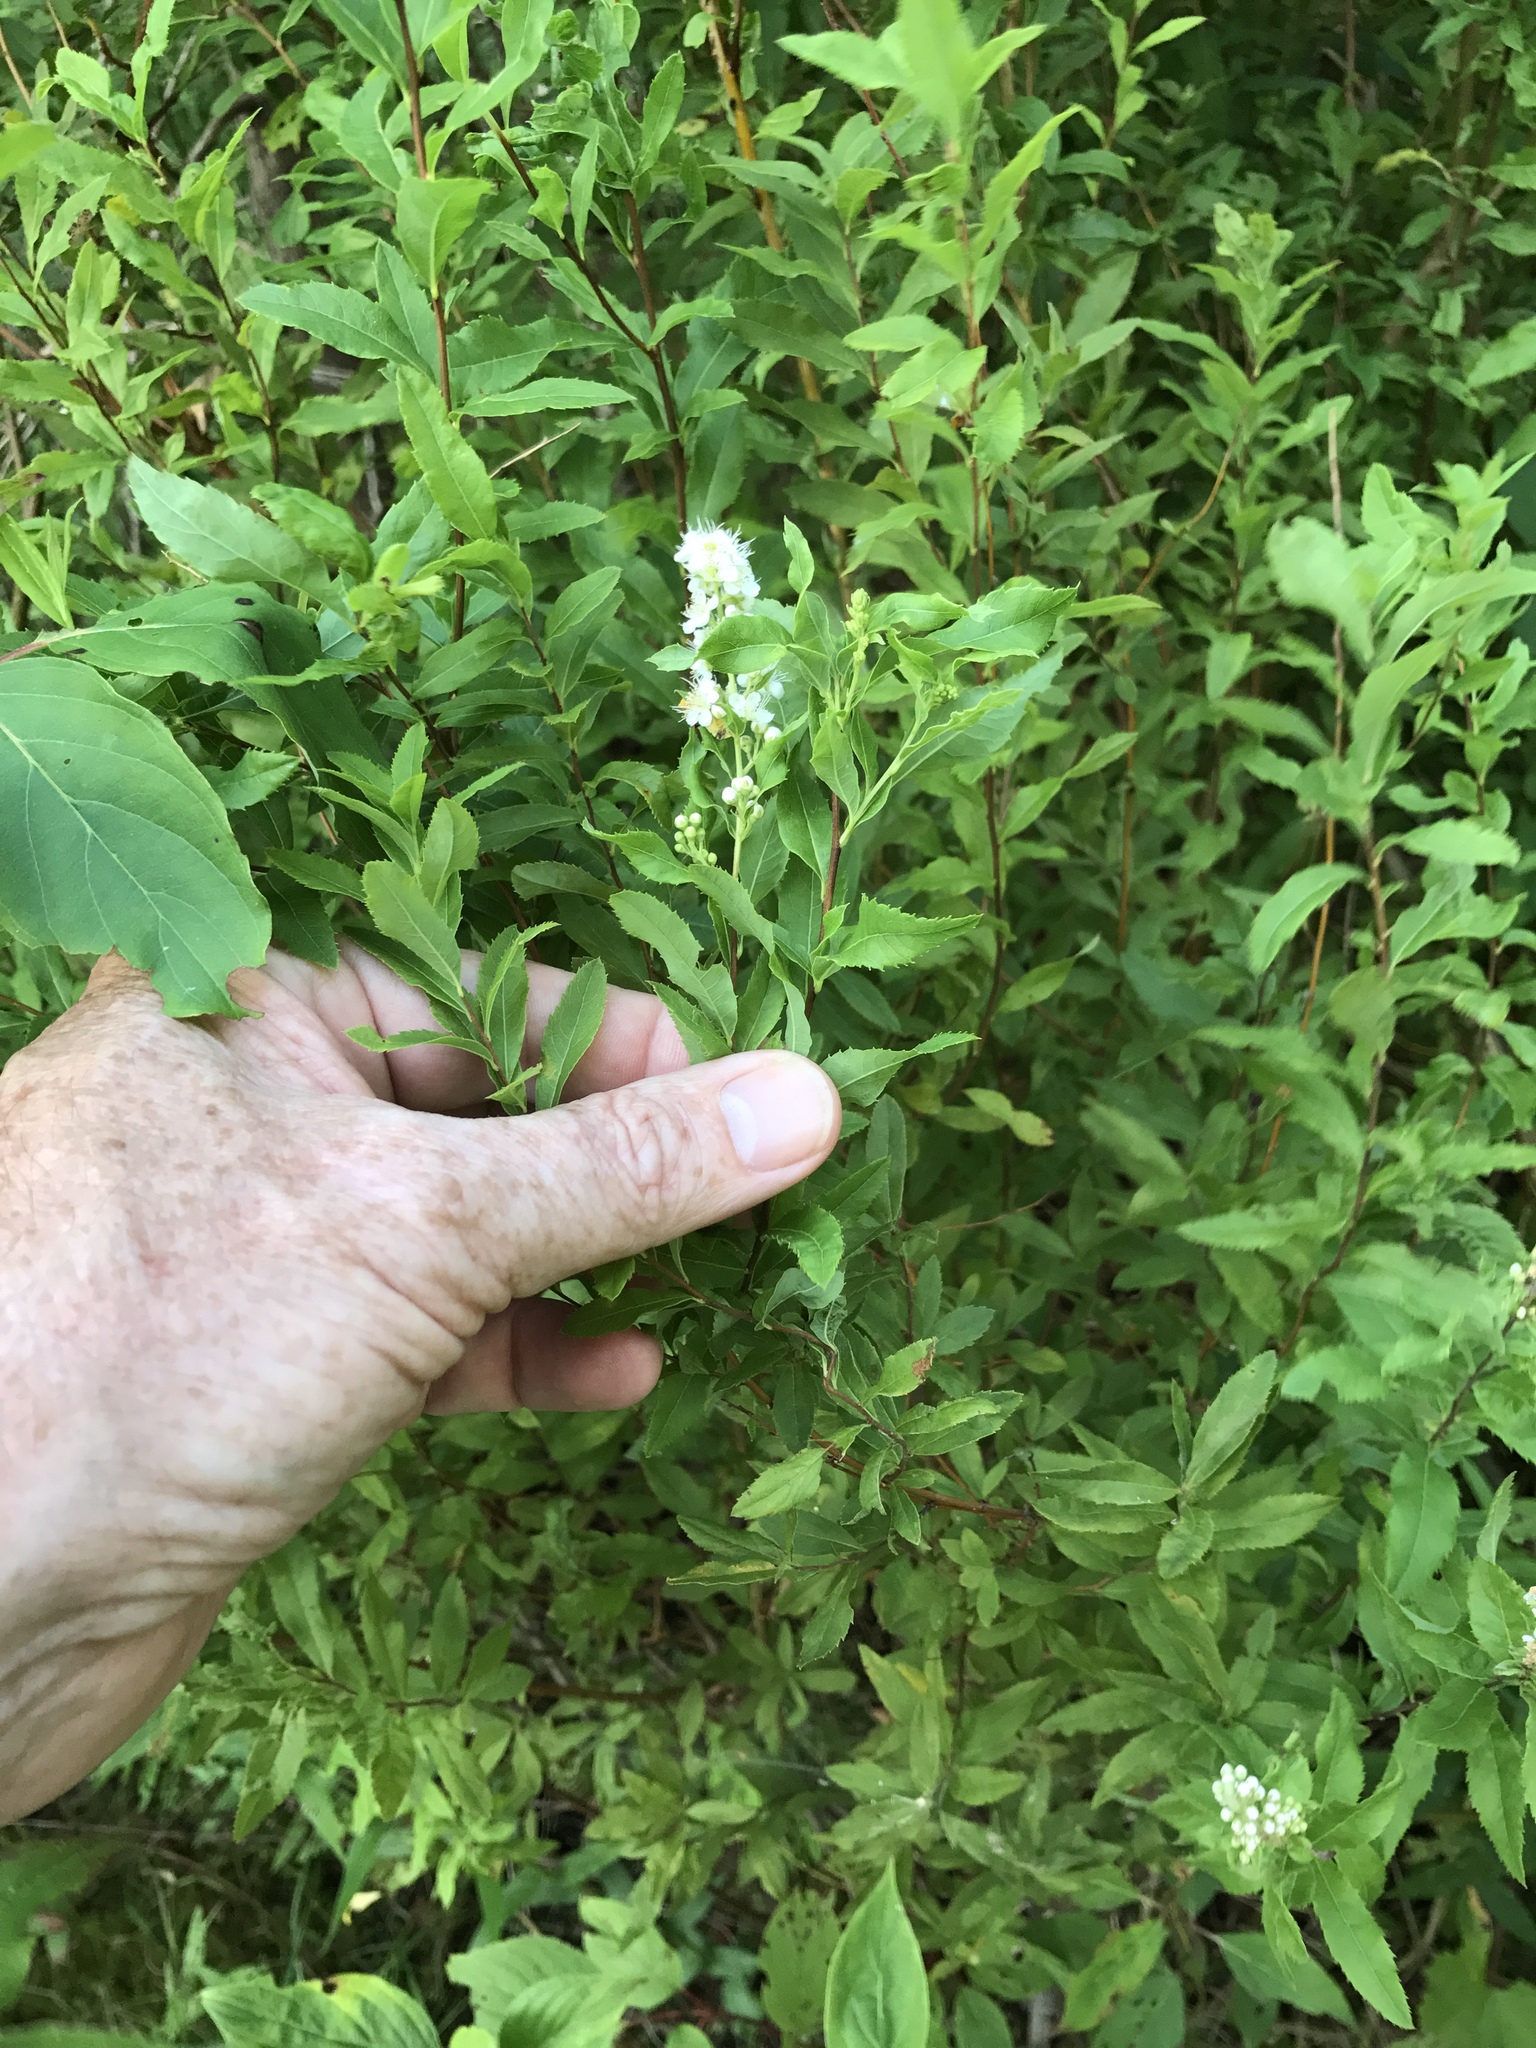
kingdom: Plantae
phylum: Tracheophyta
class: Magnoliopsida
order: Rosales
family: Rosaceae
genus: Spiraea
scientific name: Spiraea alba
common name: Pale bridewort
